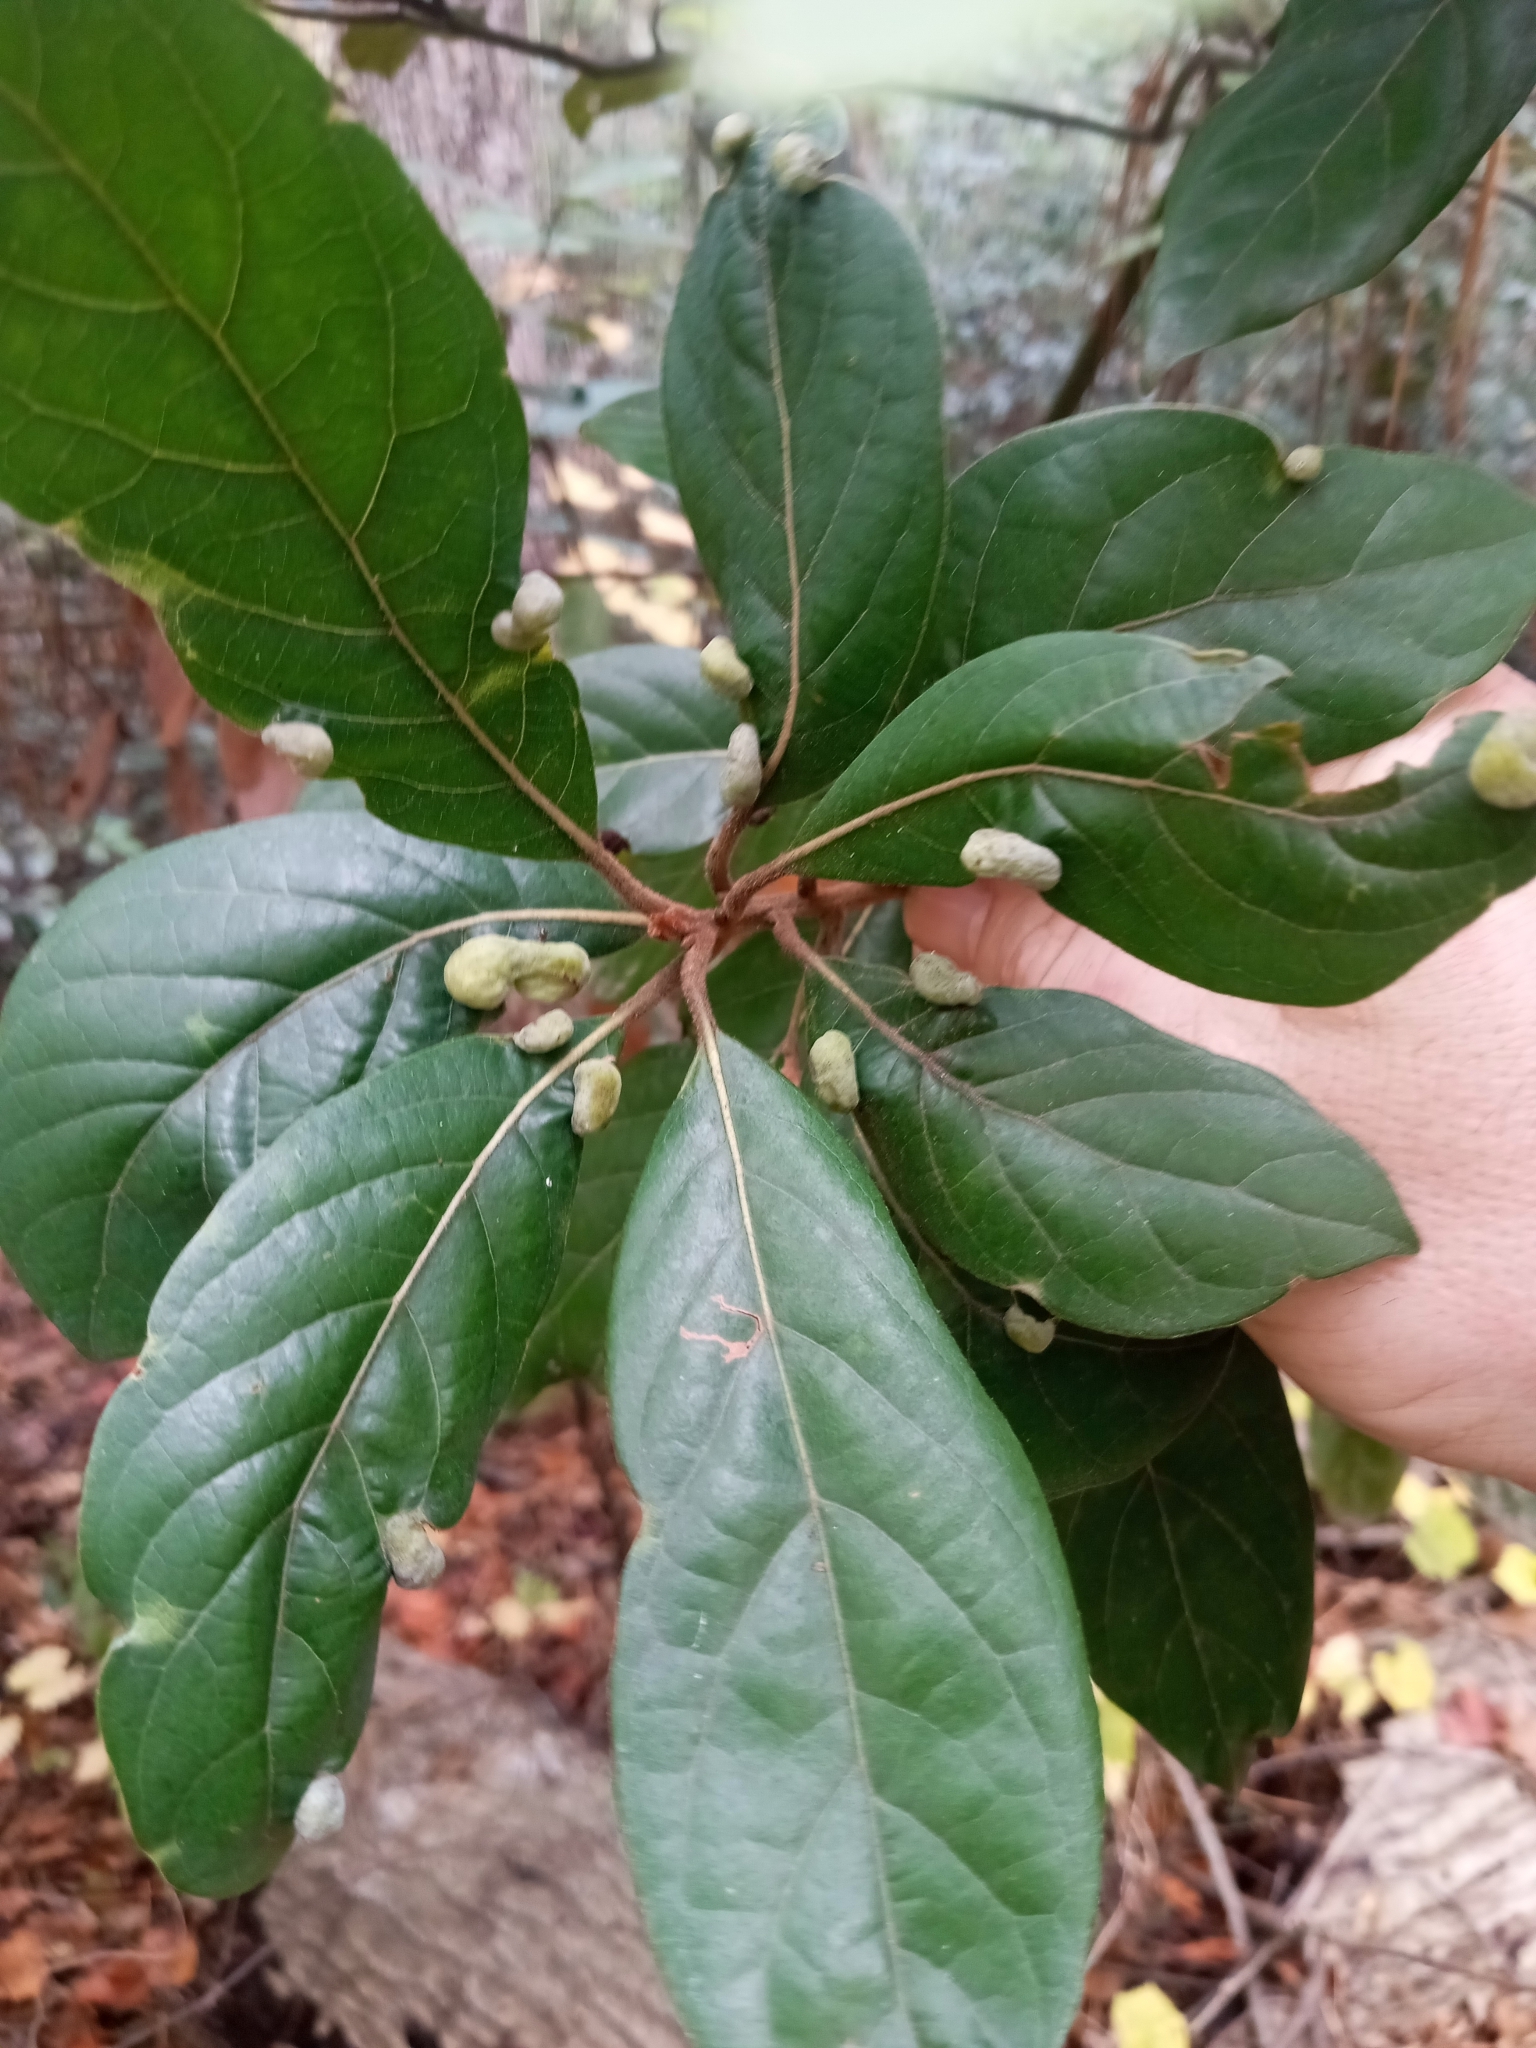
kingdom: Plantae
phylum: Tracheophyta
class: Magnoliopsida
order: Laurales
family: Lauraceae
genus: Persea
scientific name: Persea palustris
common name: Swampbay
